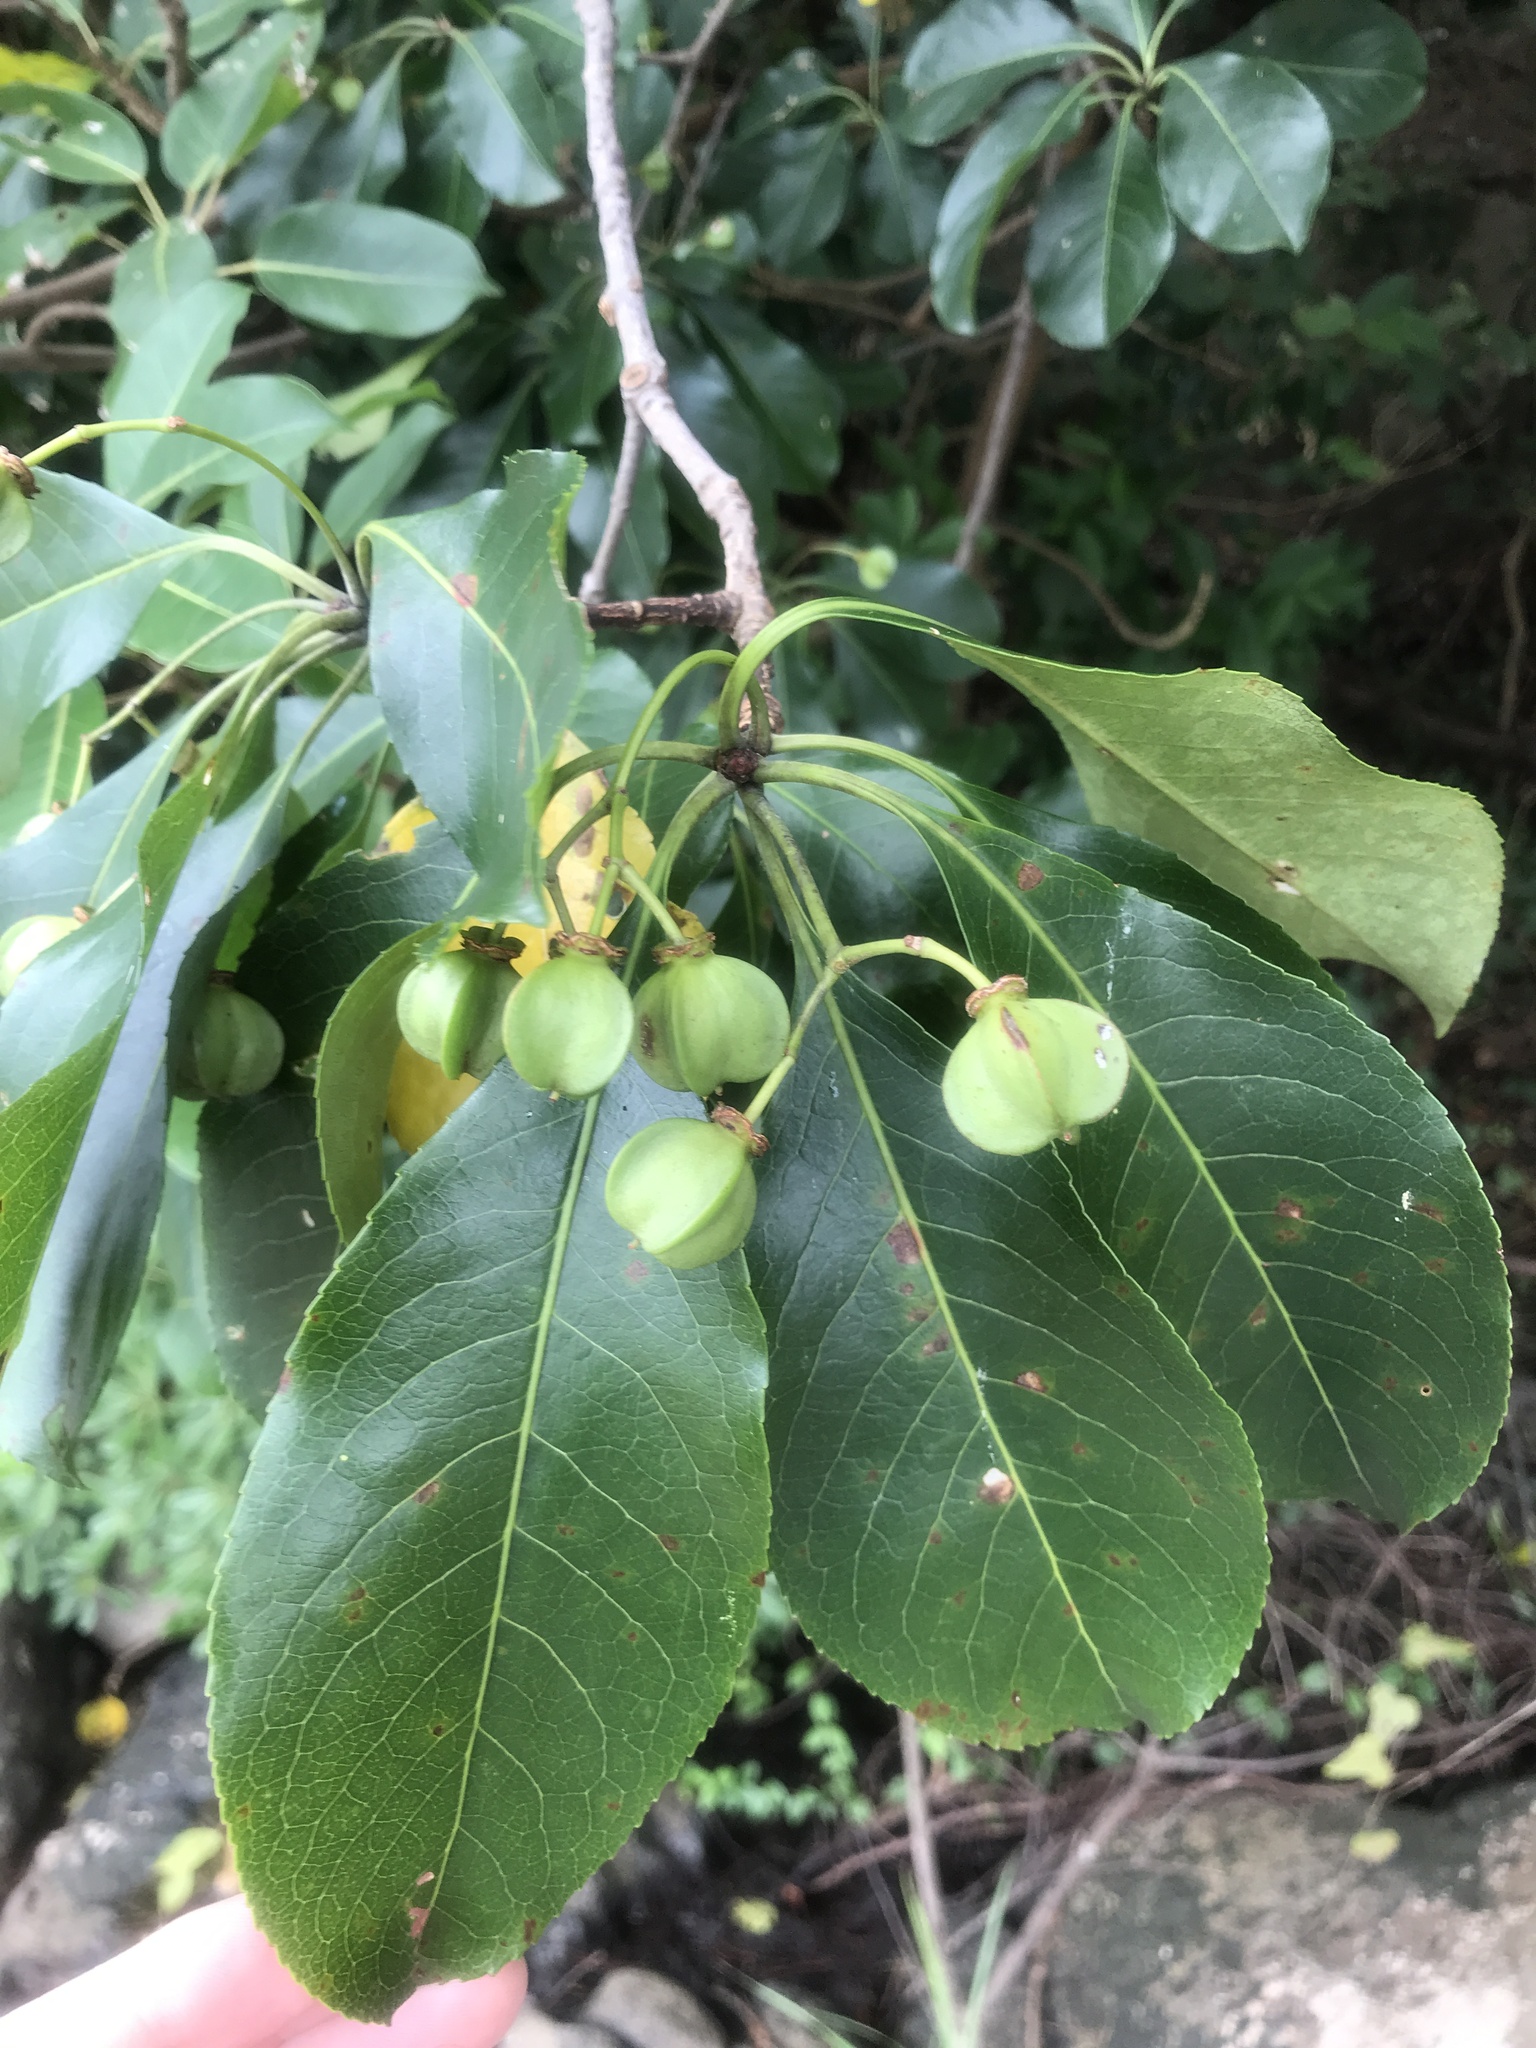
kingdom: Plantae
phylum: Tracheophyta
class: Magnoliopsida
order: Celastrales
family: Celastraceae
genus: Euonymus
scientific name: Euonymus carnosus
